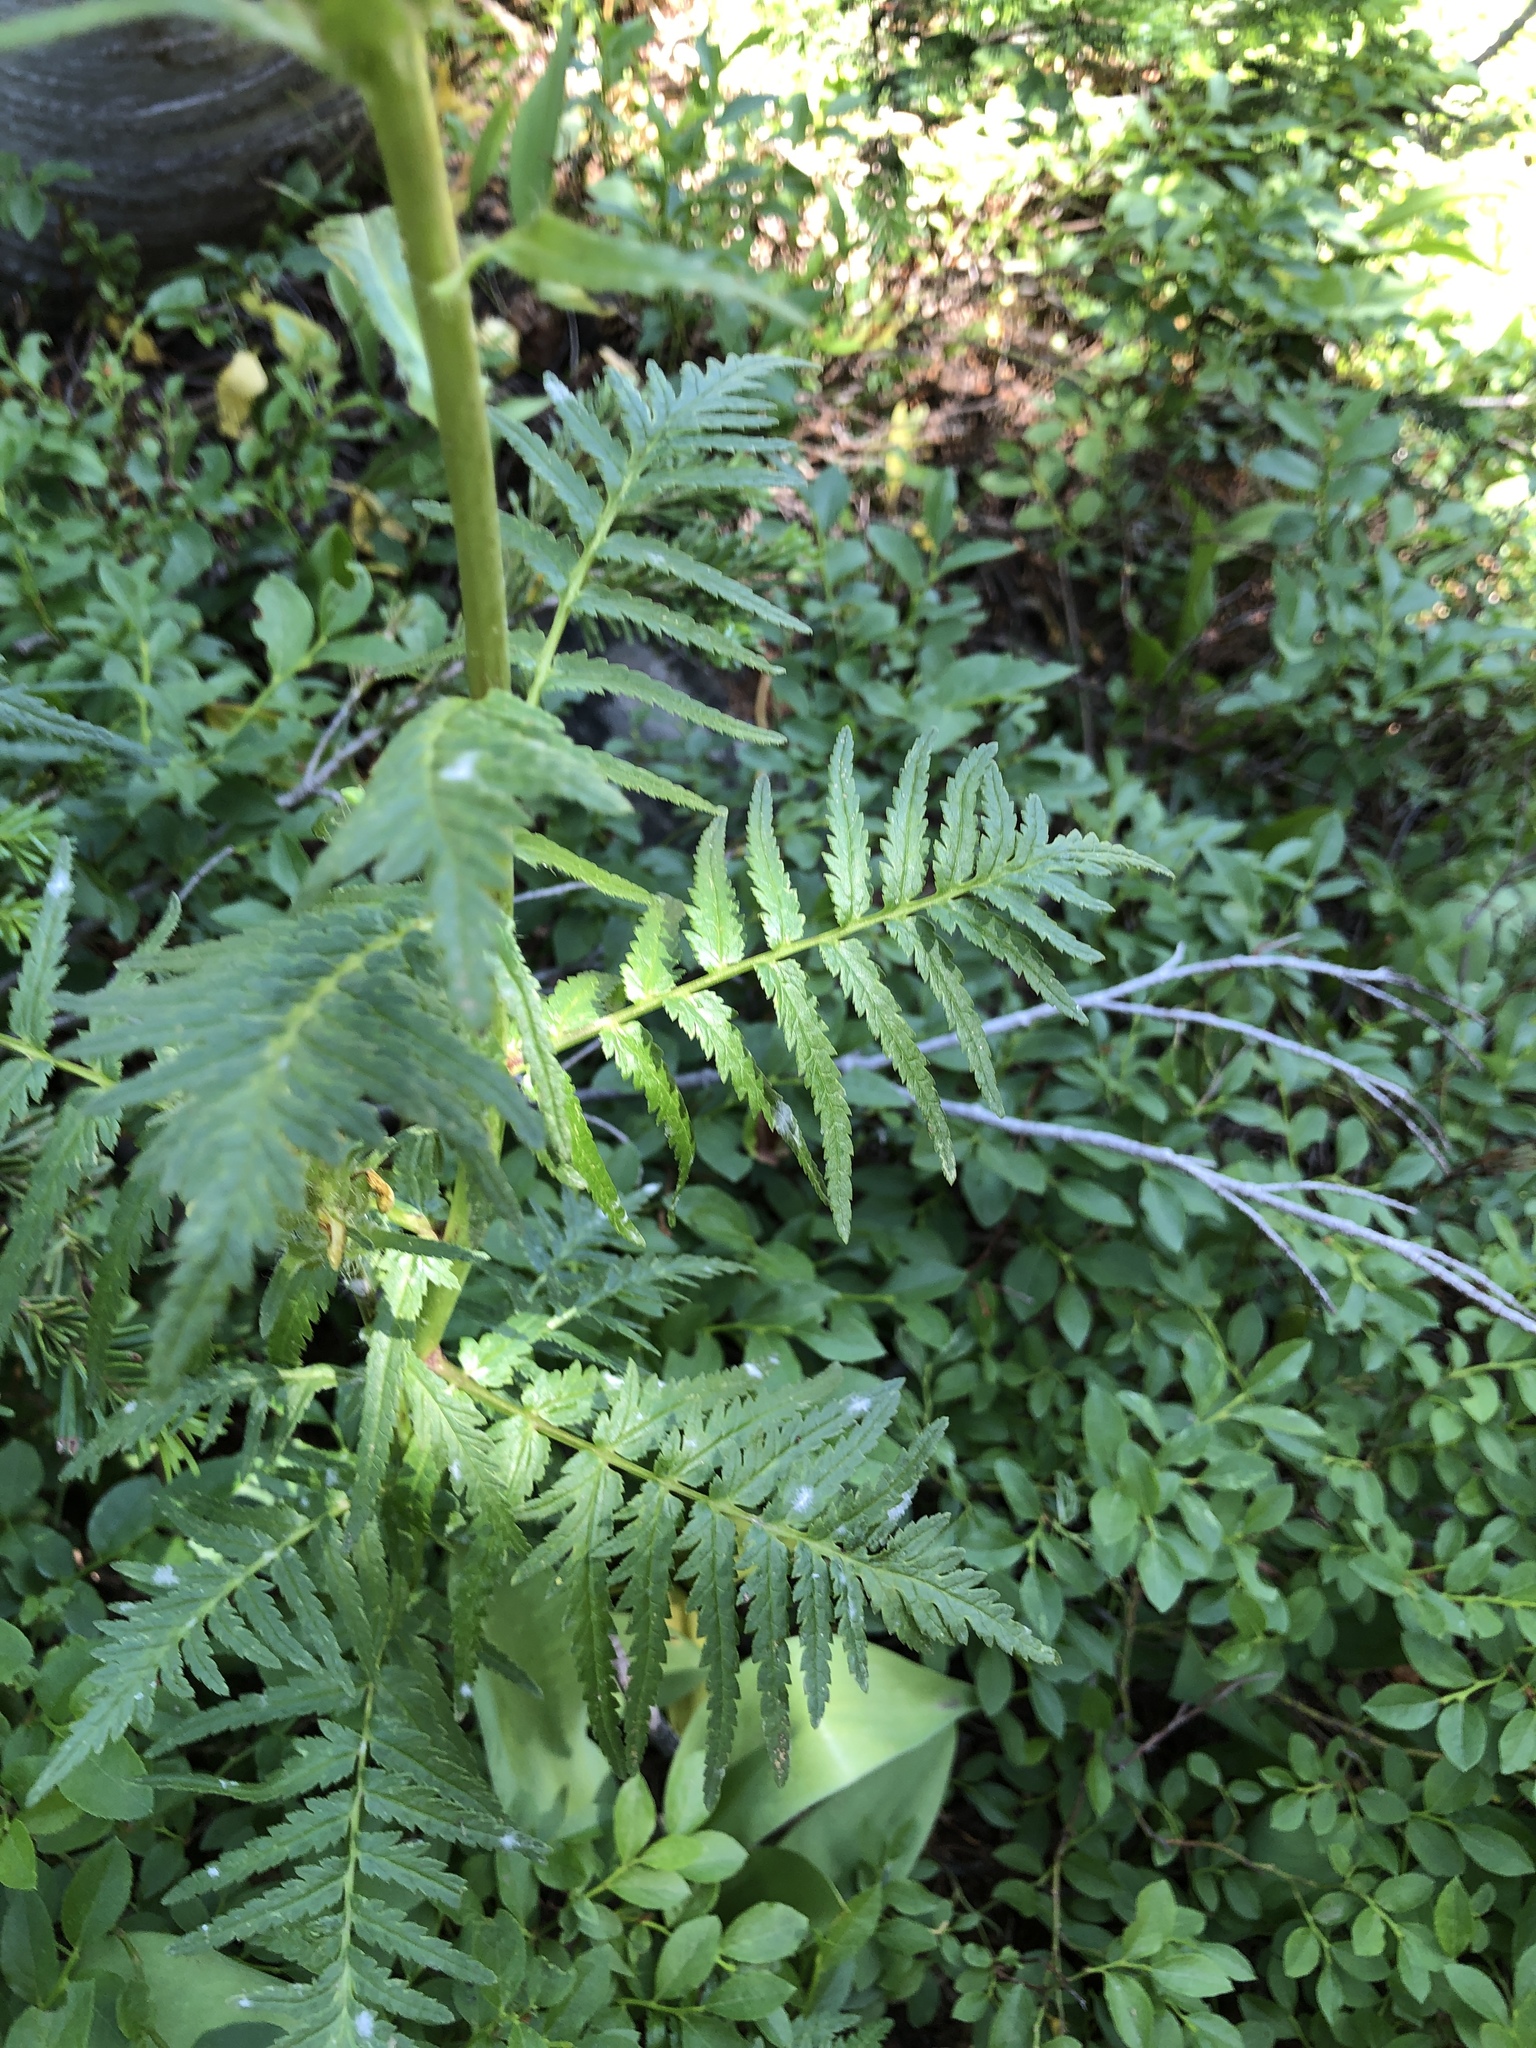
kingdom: Plantae
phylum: Tracheophyta
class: Magnoliopsida
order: Lamiales
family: Orobanchaceae
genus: Pedicularis
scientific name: Pedicularis bracteosa
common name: Bracted lousewort
